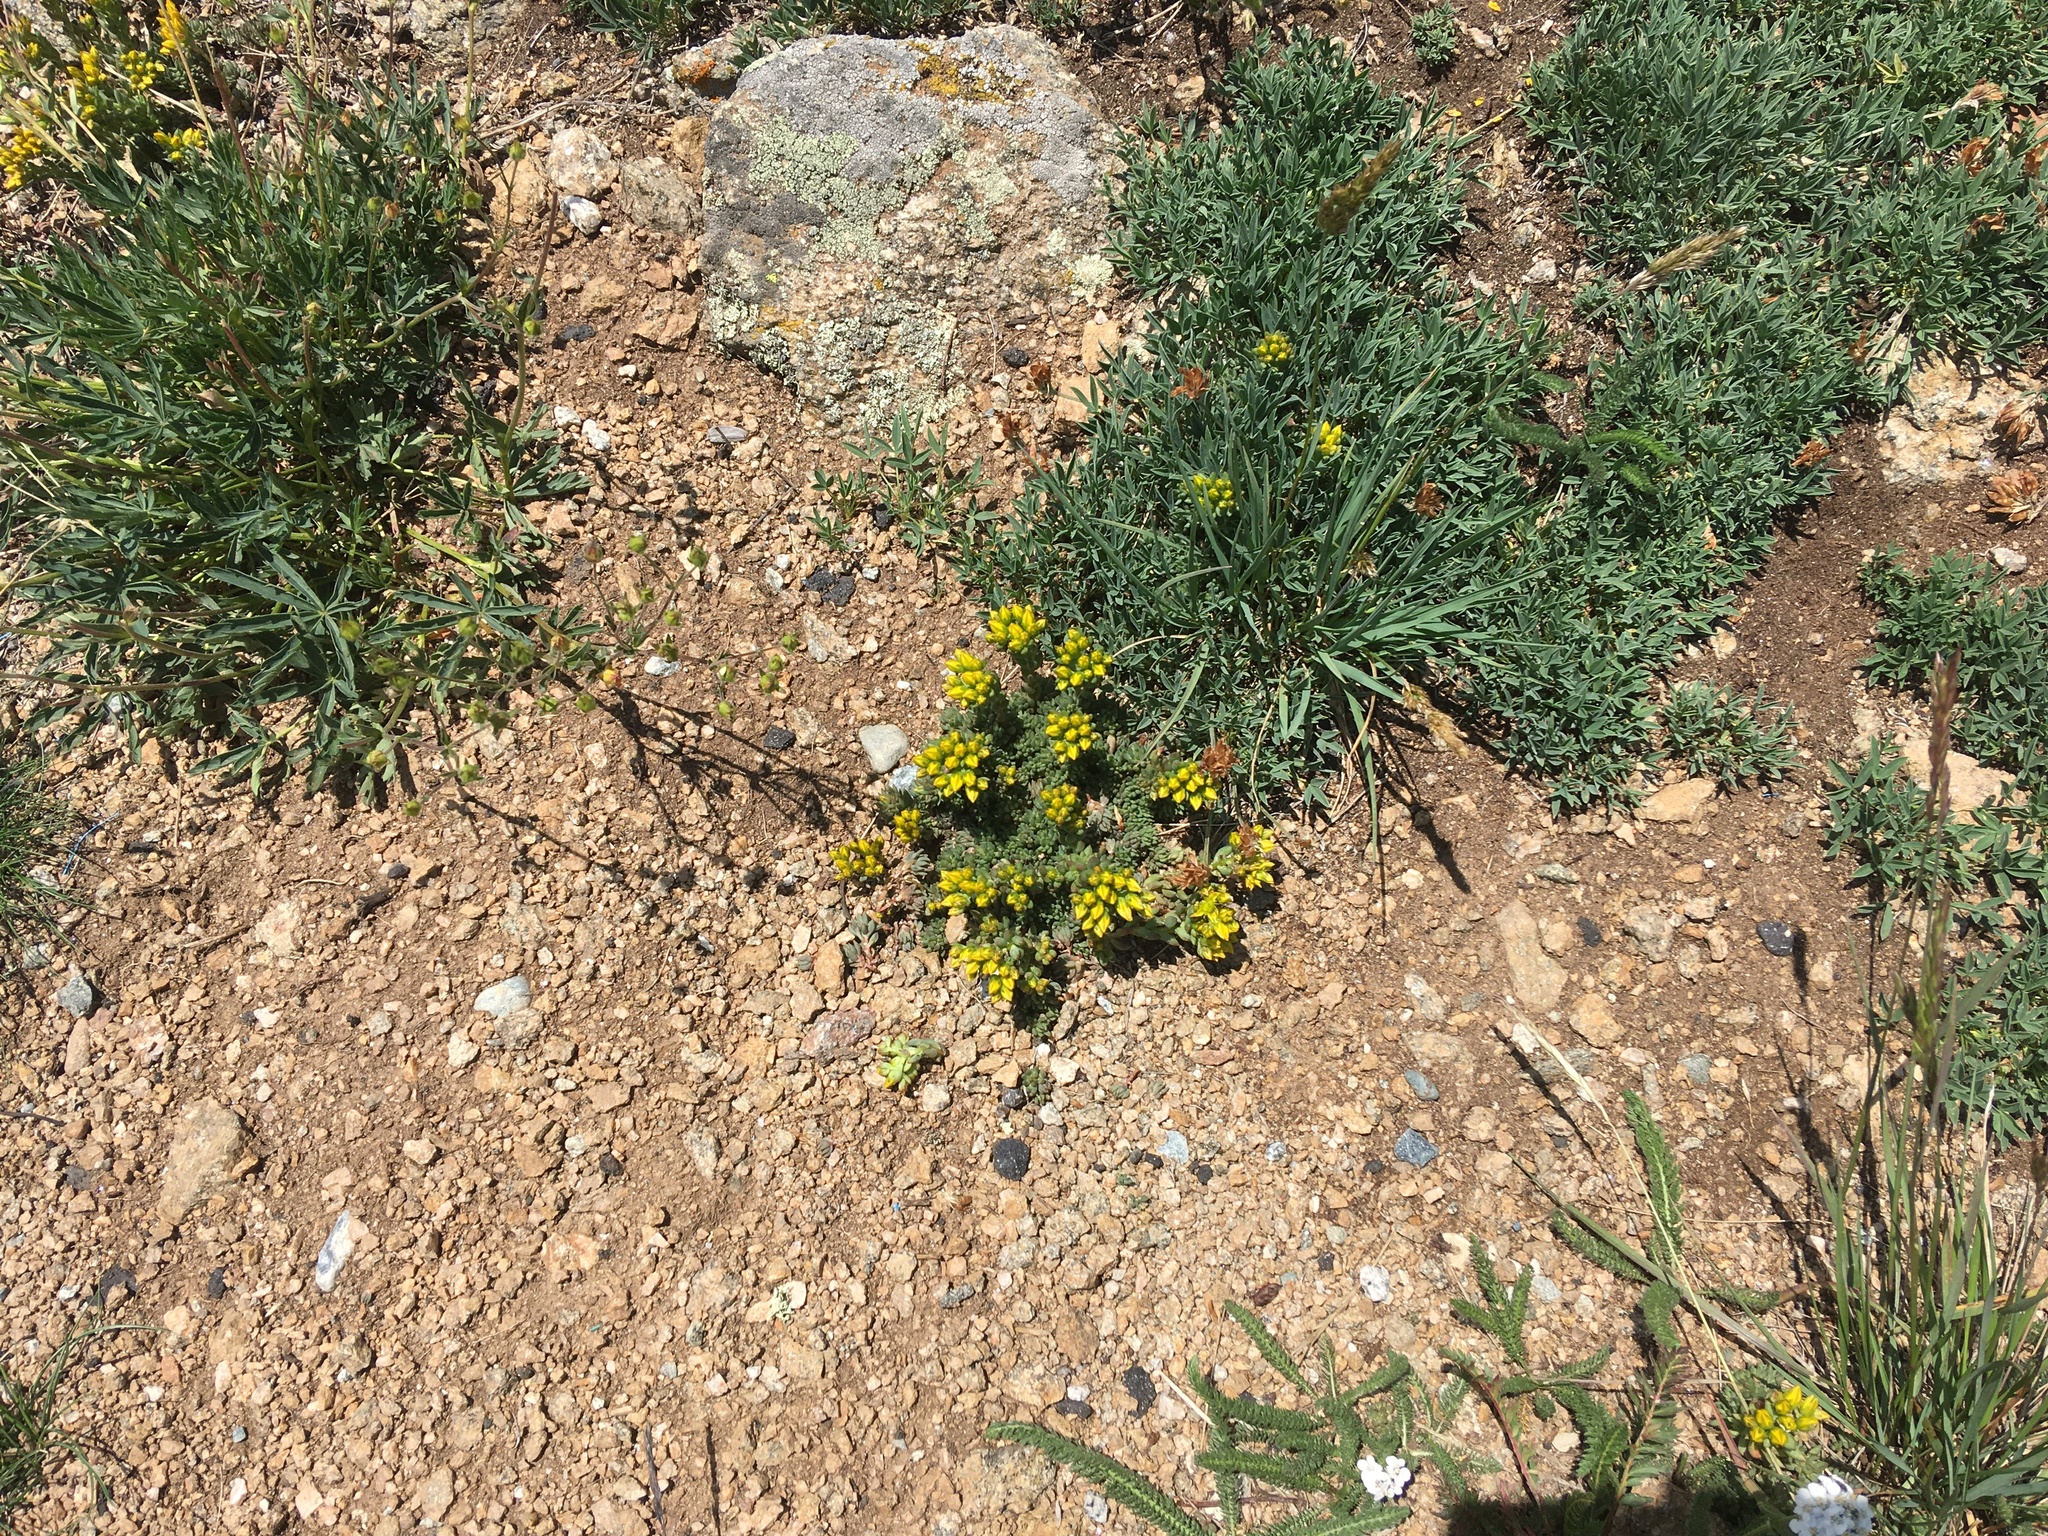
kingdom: Plantae
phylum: Tracheophyta
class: Magnoliopsida
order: Saxifragales
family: Crassulaceae
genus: Sedum
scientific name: Sedum lanceolatum
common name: Common stonecrop
